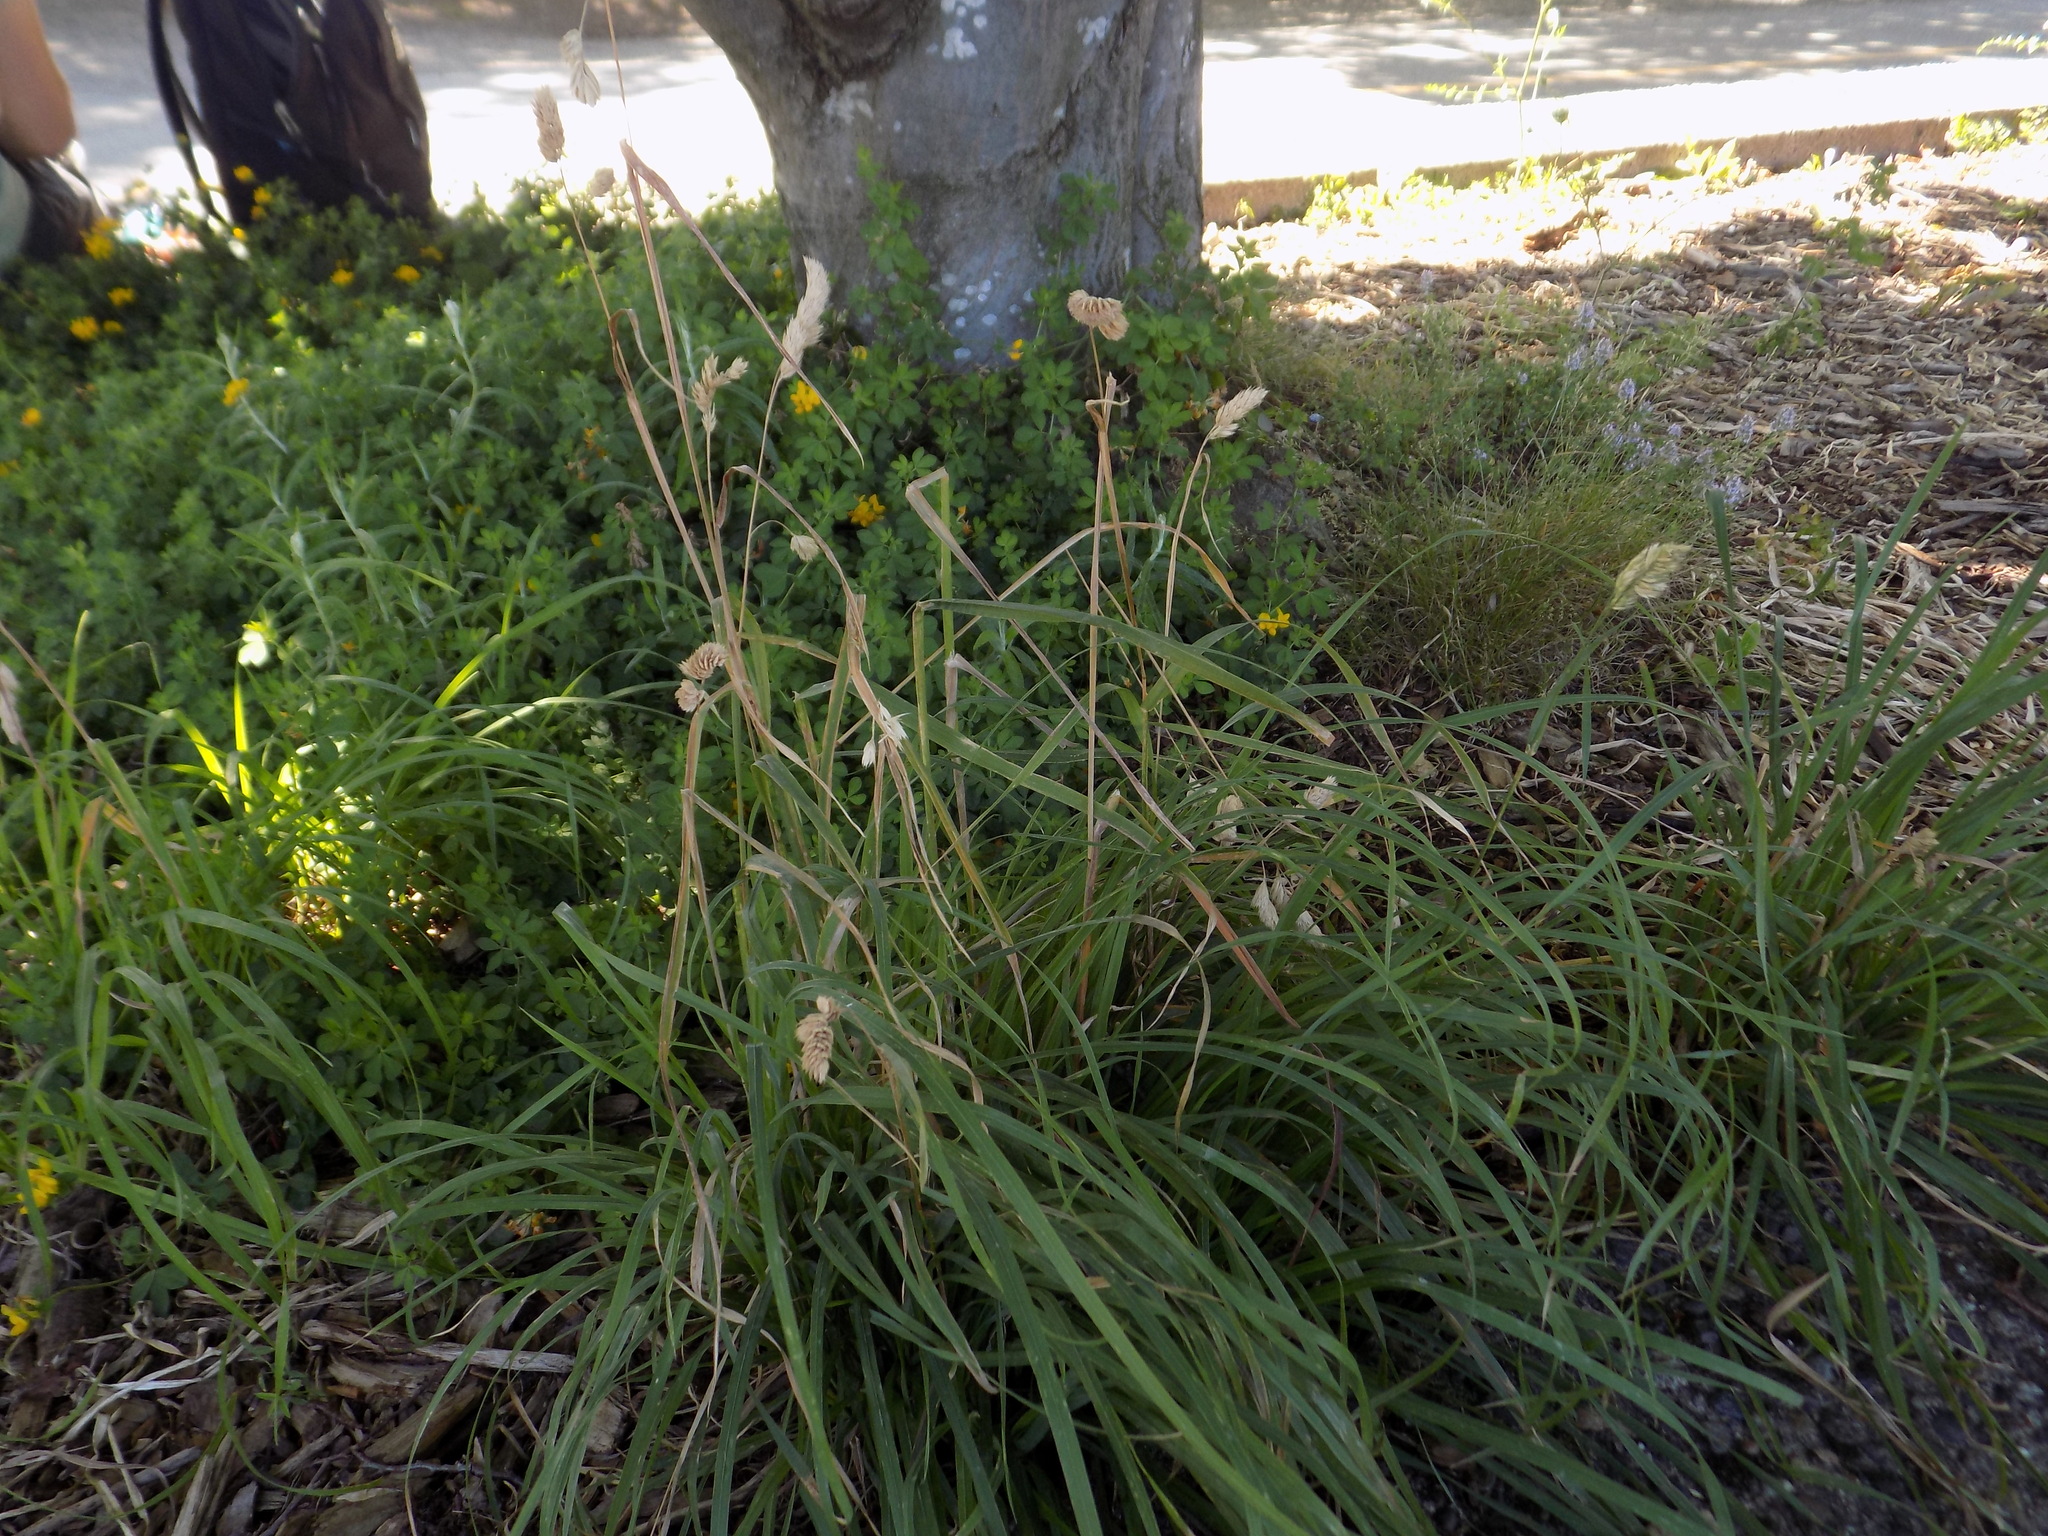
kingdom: Plantae
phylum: Tracheophyta
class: Liliopsida
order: Poales
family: Poaceae
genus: Dactylis
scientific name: Dactylis glomerata
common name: Orchardgrass
